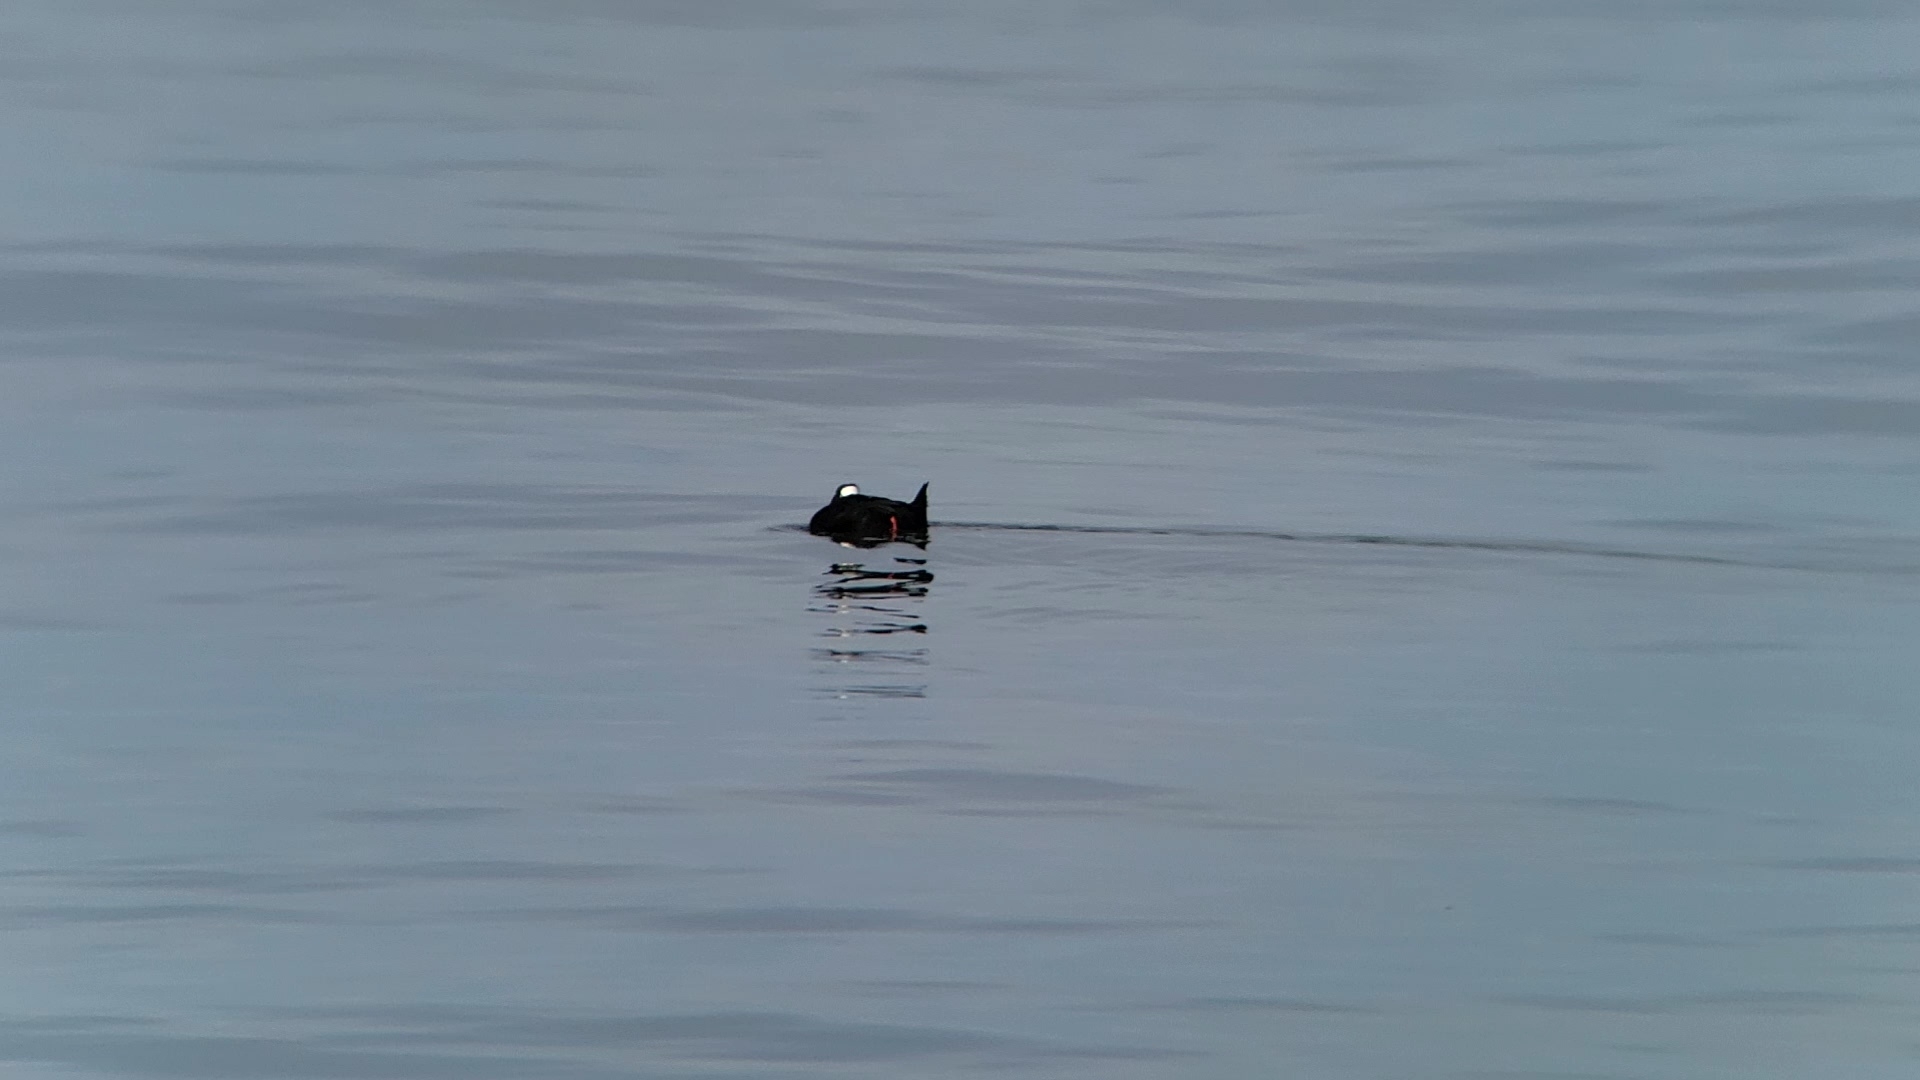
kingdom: Animalia
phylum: Chordata
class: Aves
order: Anseriformes
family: Anatidae
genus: Melanitta
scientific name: Melanitta perspicillata
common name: Surf scoter
